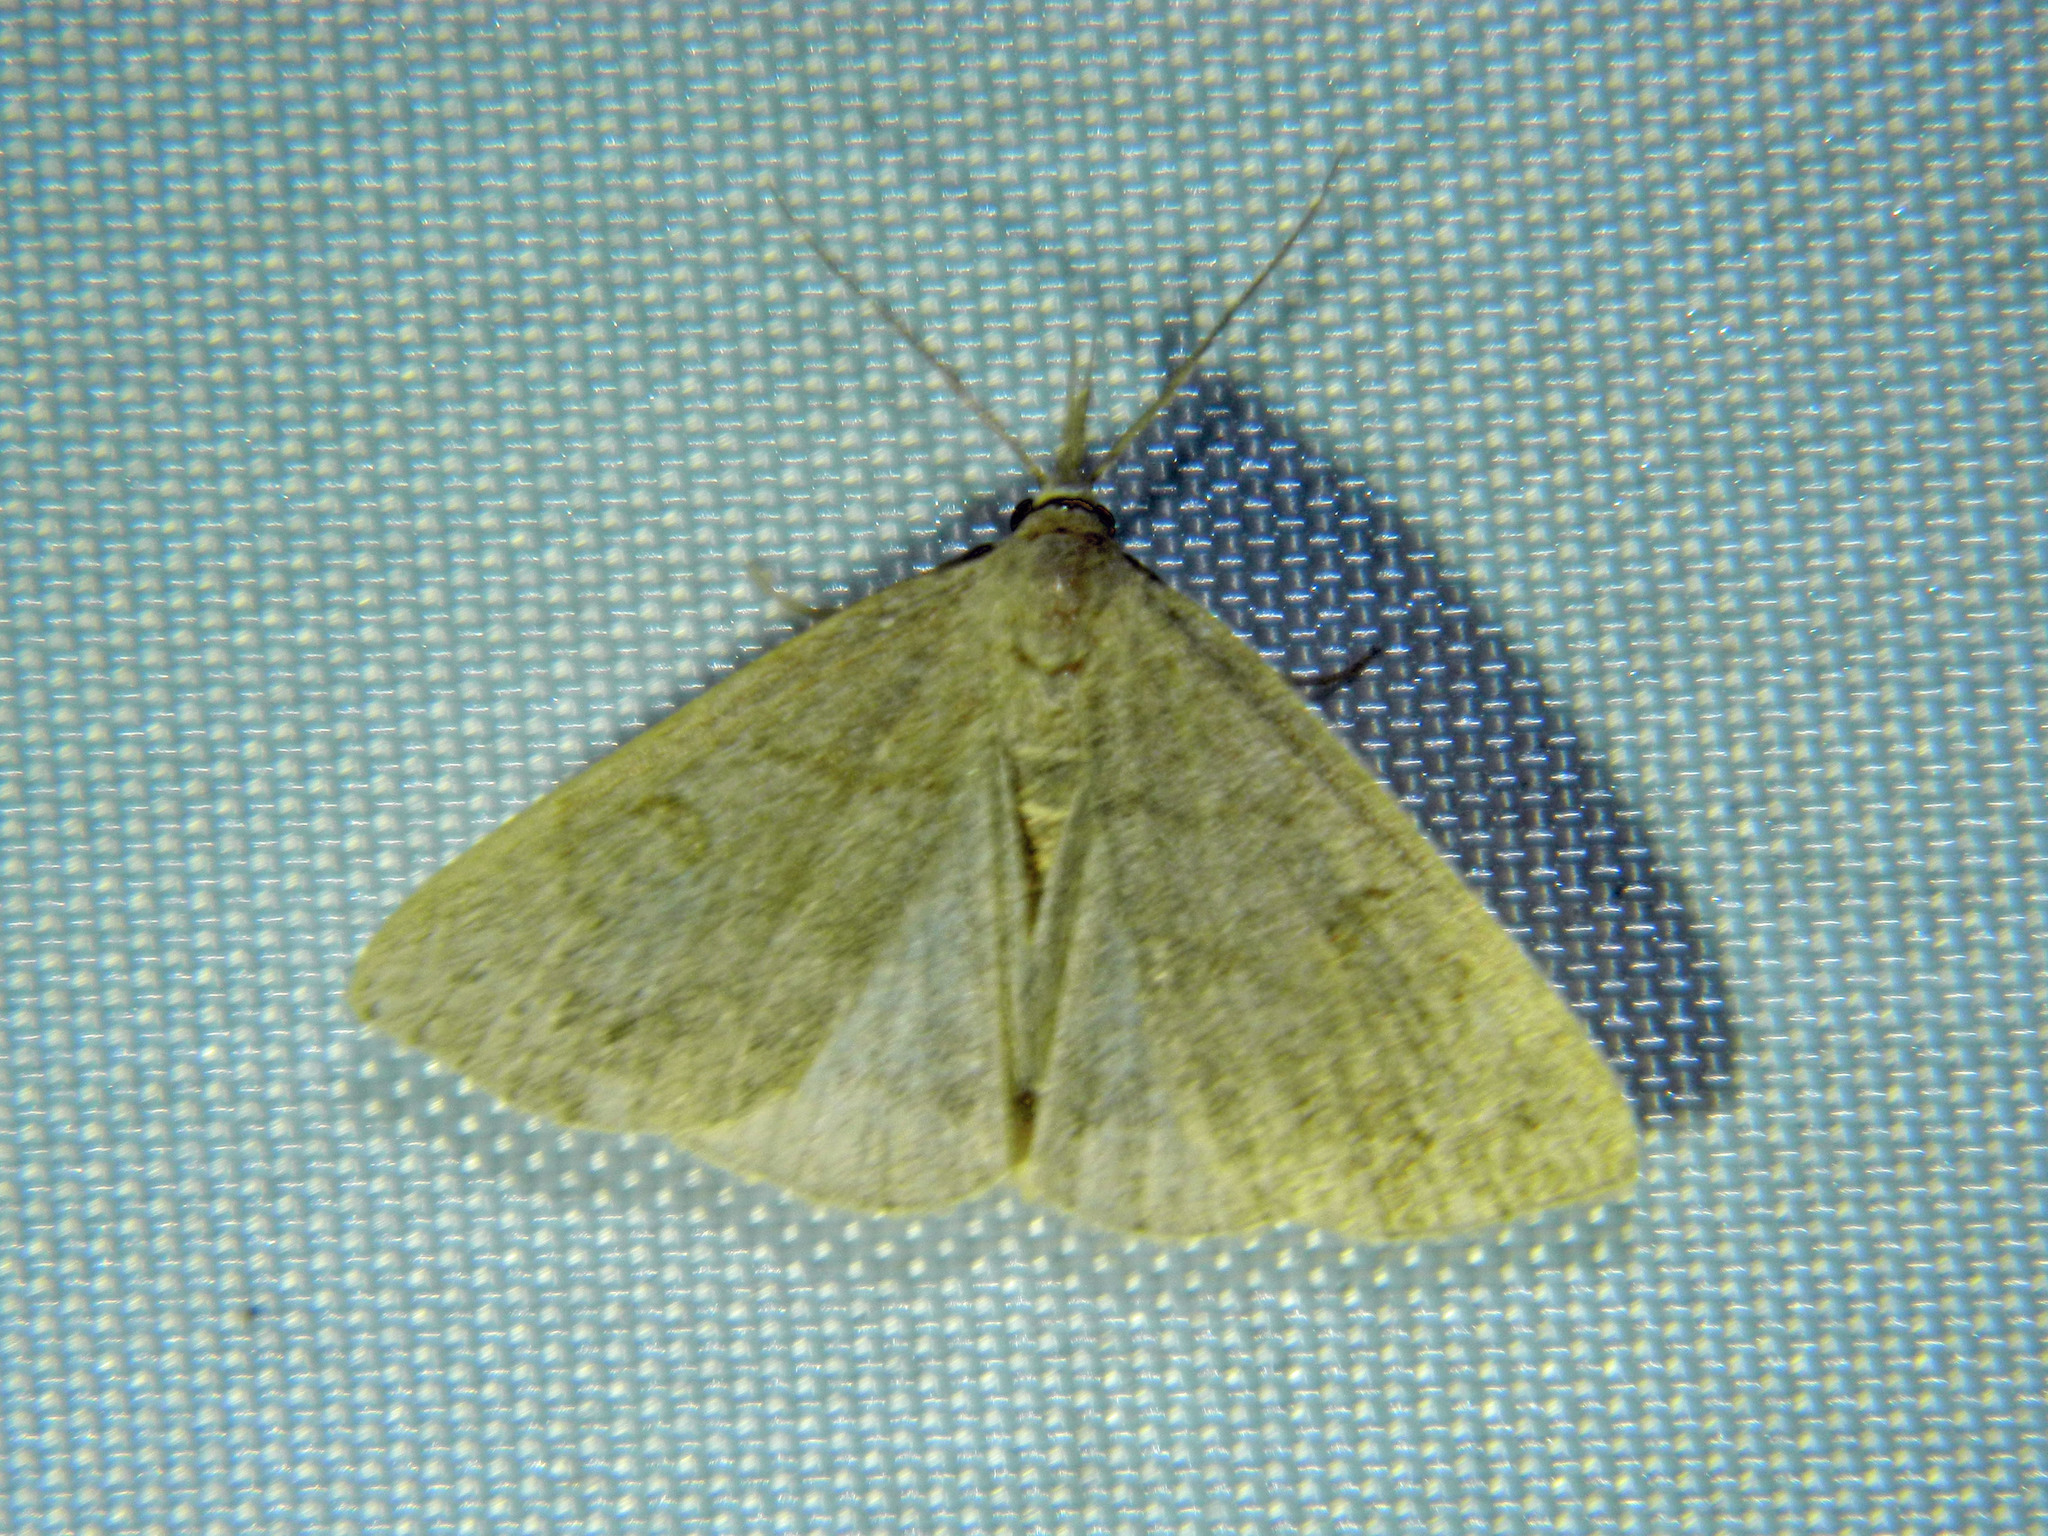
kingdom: Animalia
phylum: Arthropoda
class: Insecta
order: Lepidoptera
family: Erebidae
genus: Macrochilo
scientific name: Macrochilo morbidalis
